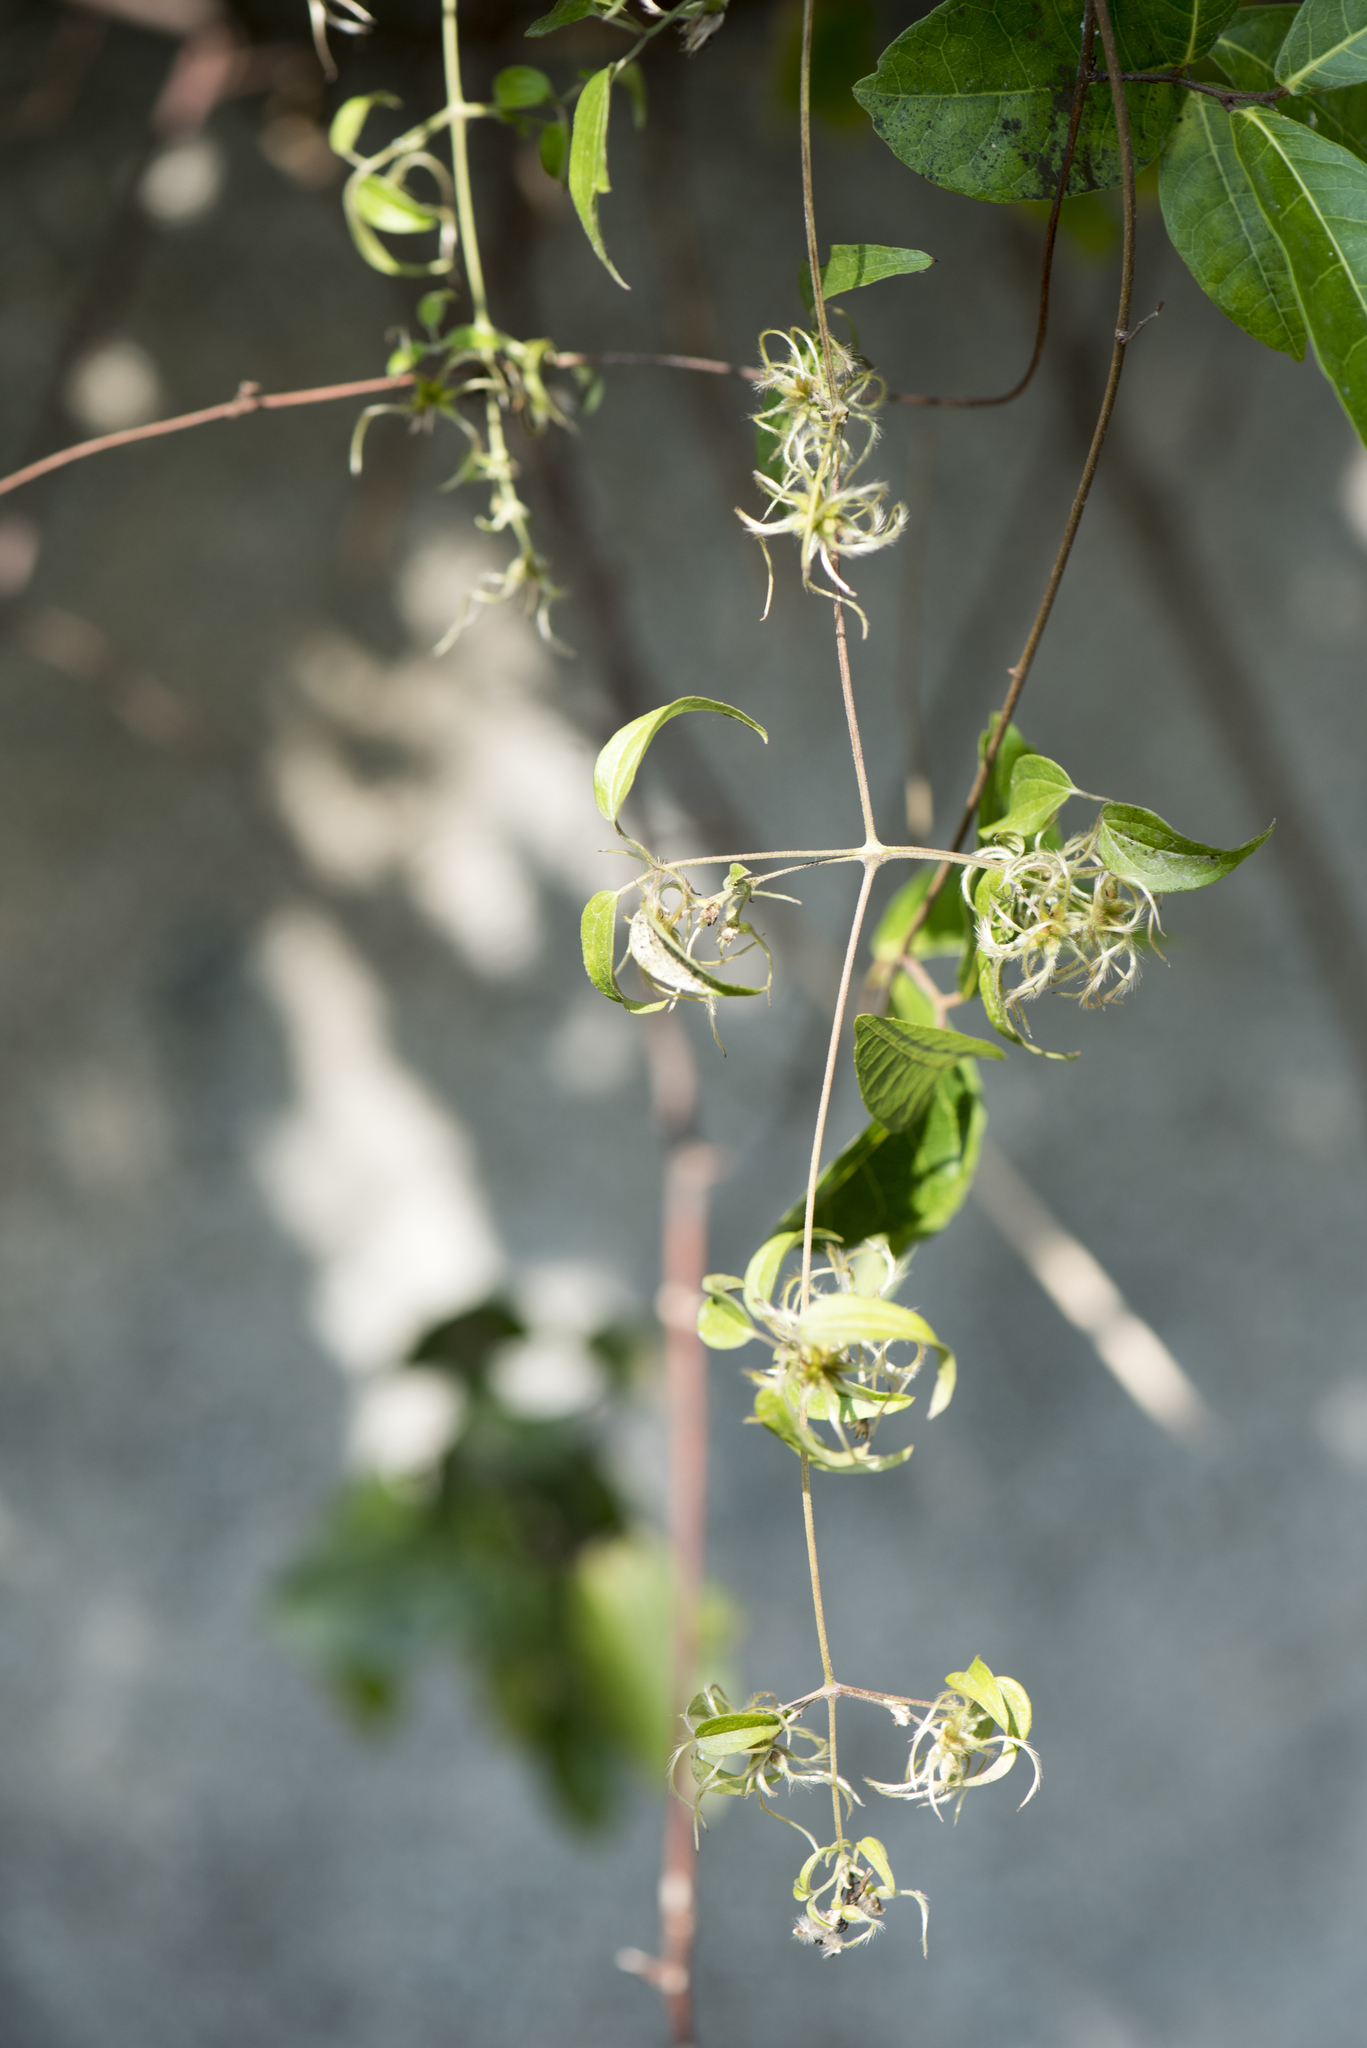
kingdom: Plantae
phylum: Tracheophyta
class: Magnoliopsida
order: Ranunculales
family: Ranunculaceae
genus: Clematis
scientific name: Clematis formosana
